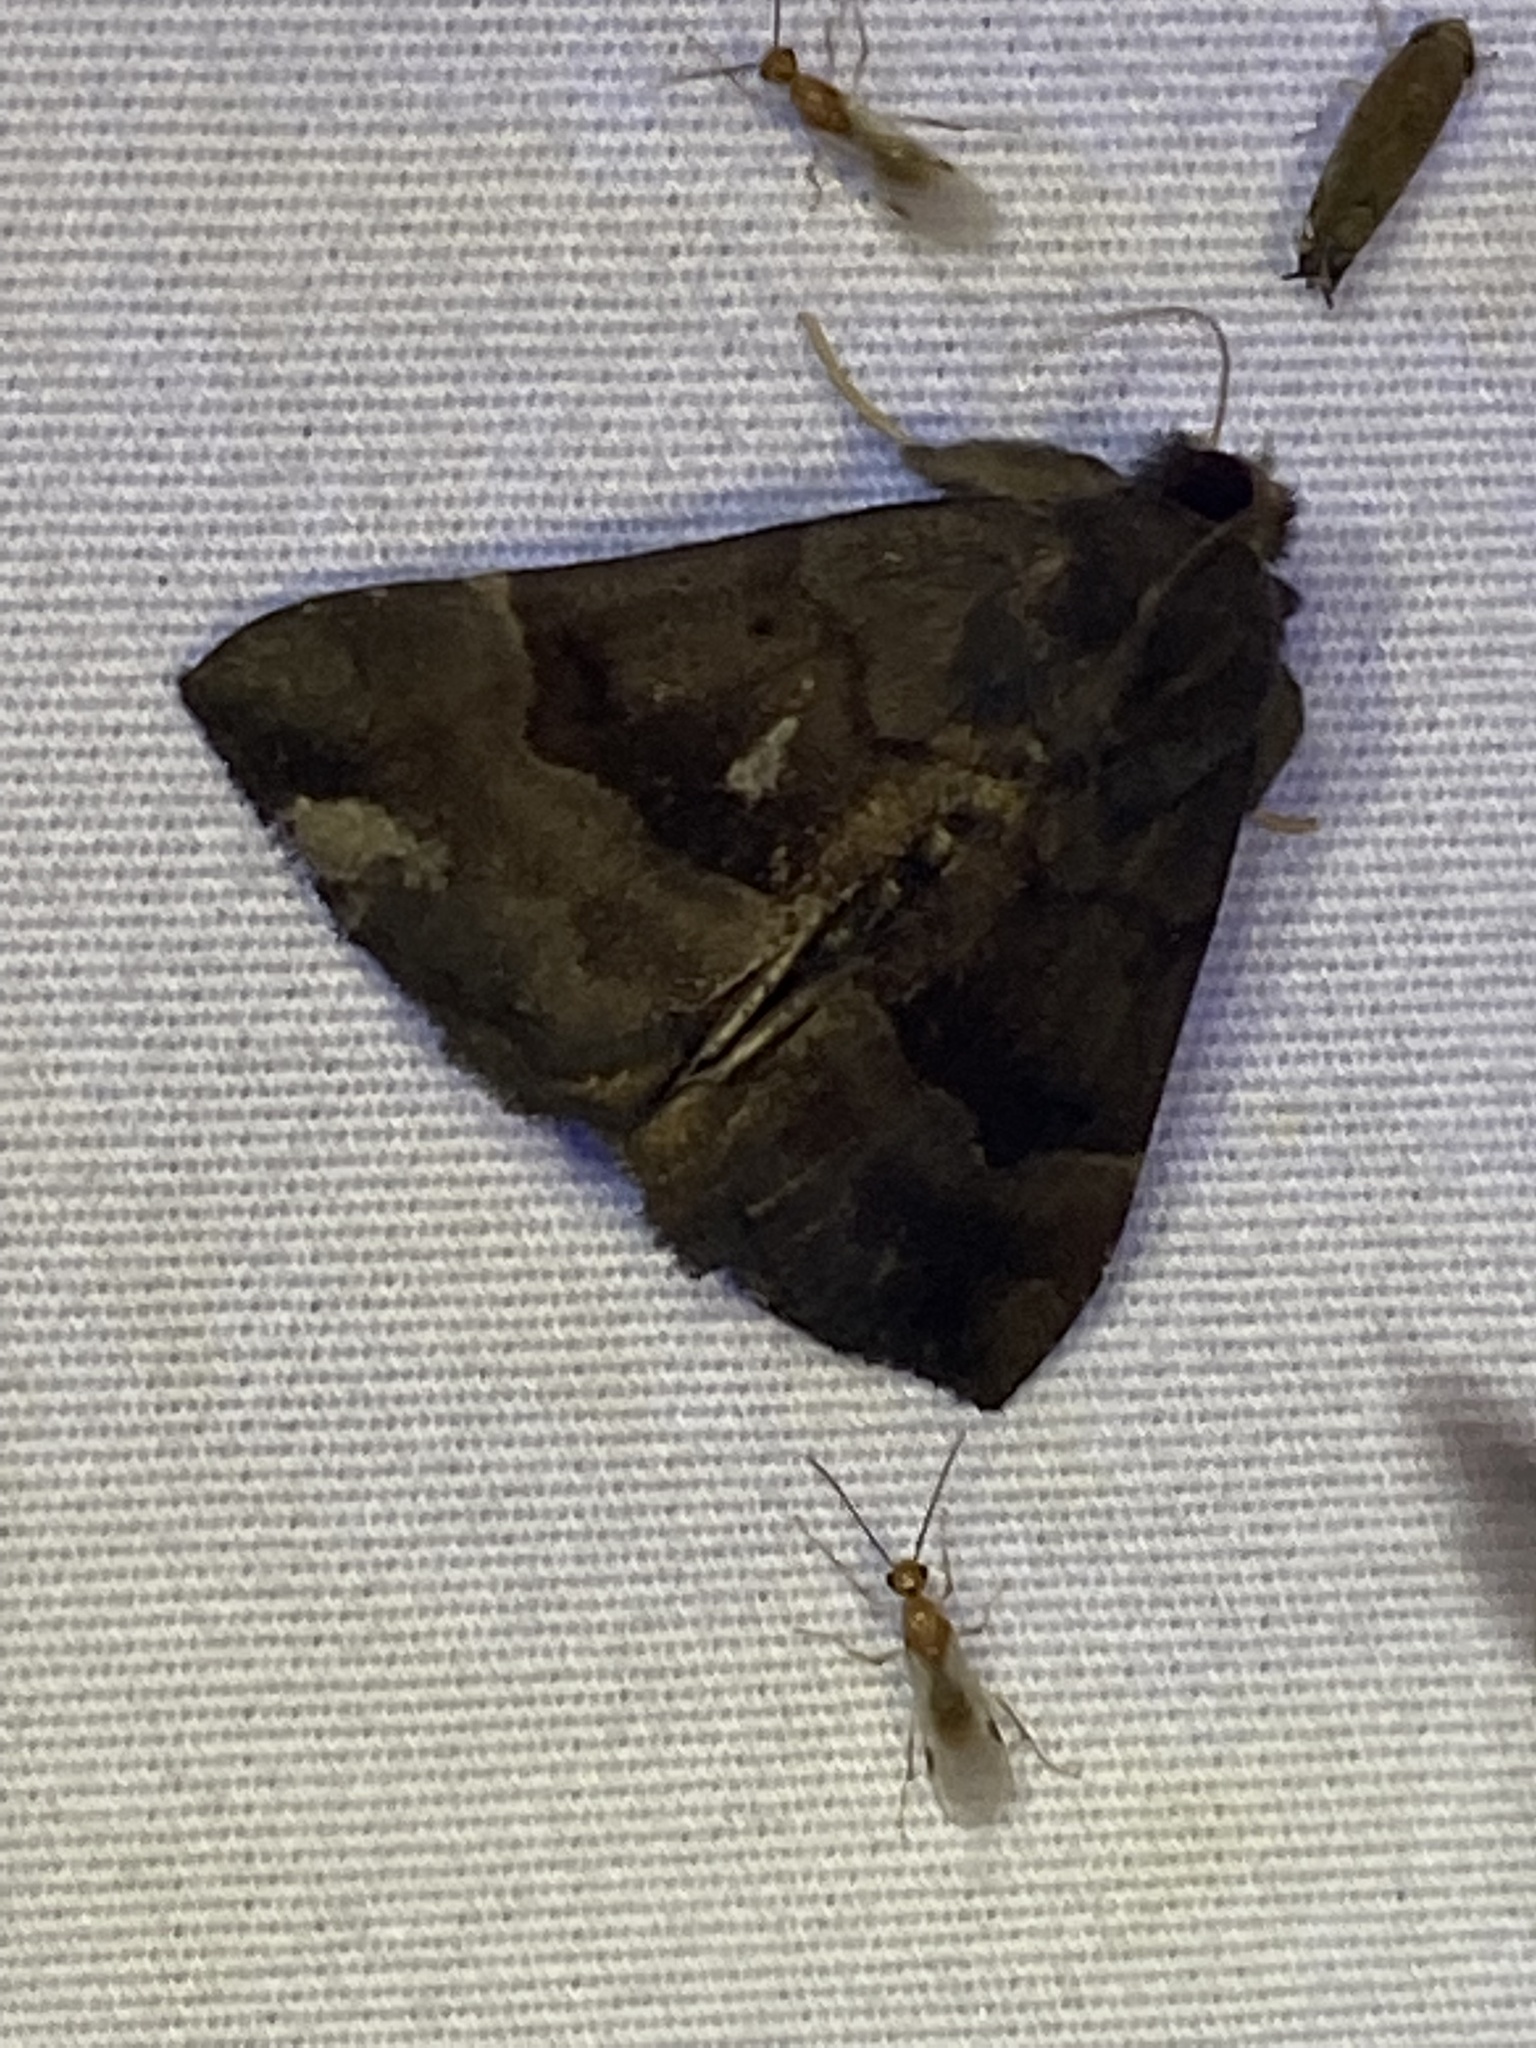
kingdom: Animalia
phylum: Arthropoda
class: Insecta
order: Lepidoptera
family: Erebidae
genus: Hypena
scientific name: Hypena madefactalis
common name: Gray-edged snout
